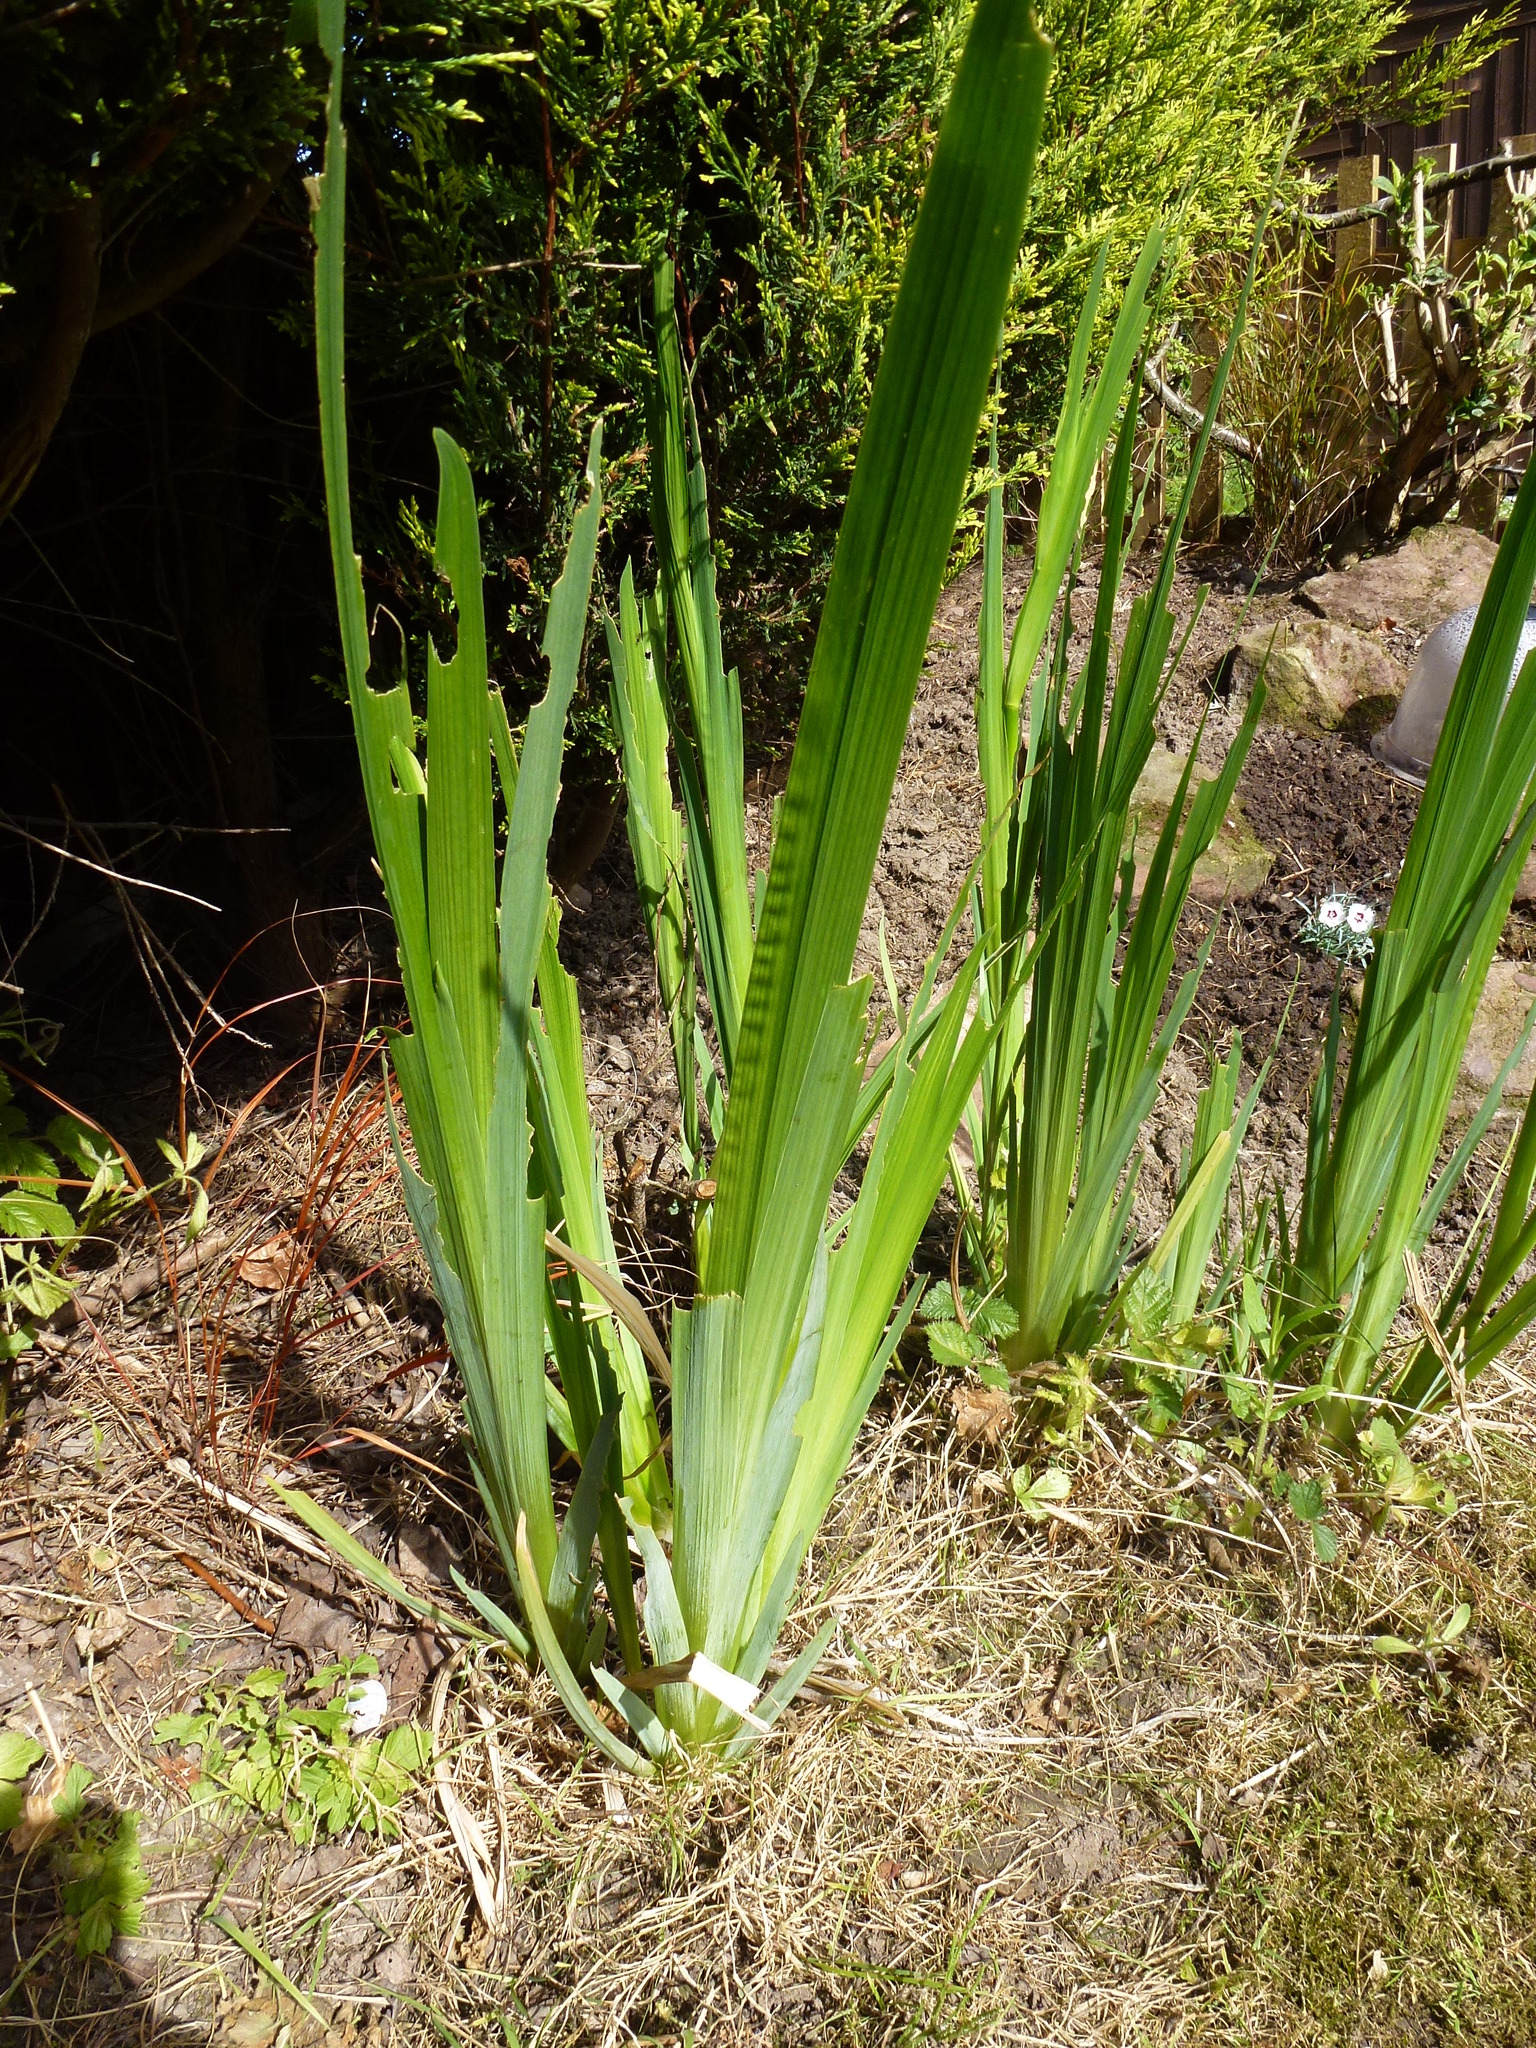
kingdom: Plantae
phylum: Tracheophyta
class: Liliopsida
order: Asparagales
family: Iridaceae
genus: Iris
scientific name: Iris pseudacorus
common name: Yellow flag
